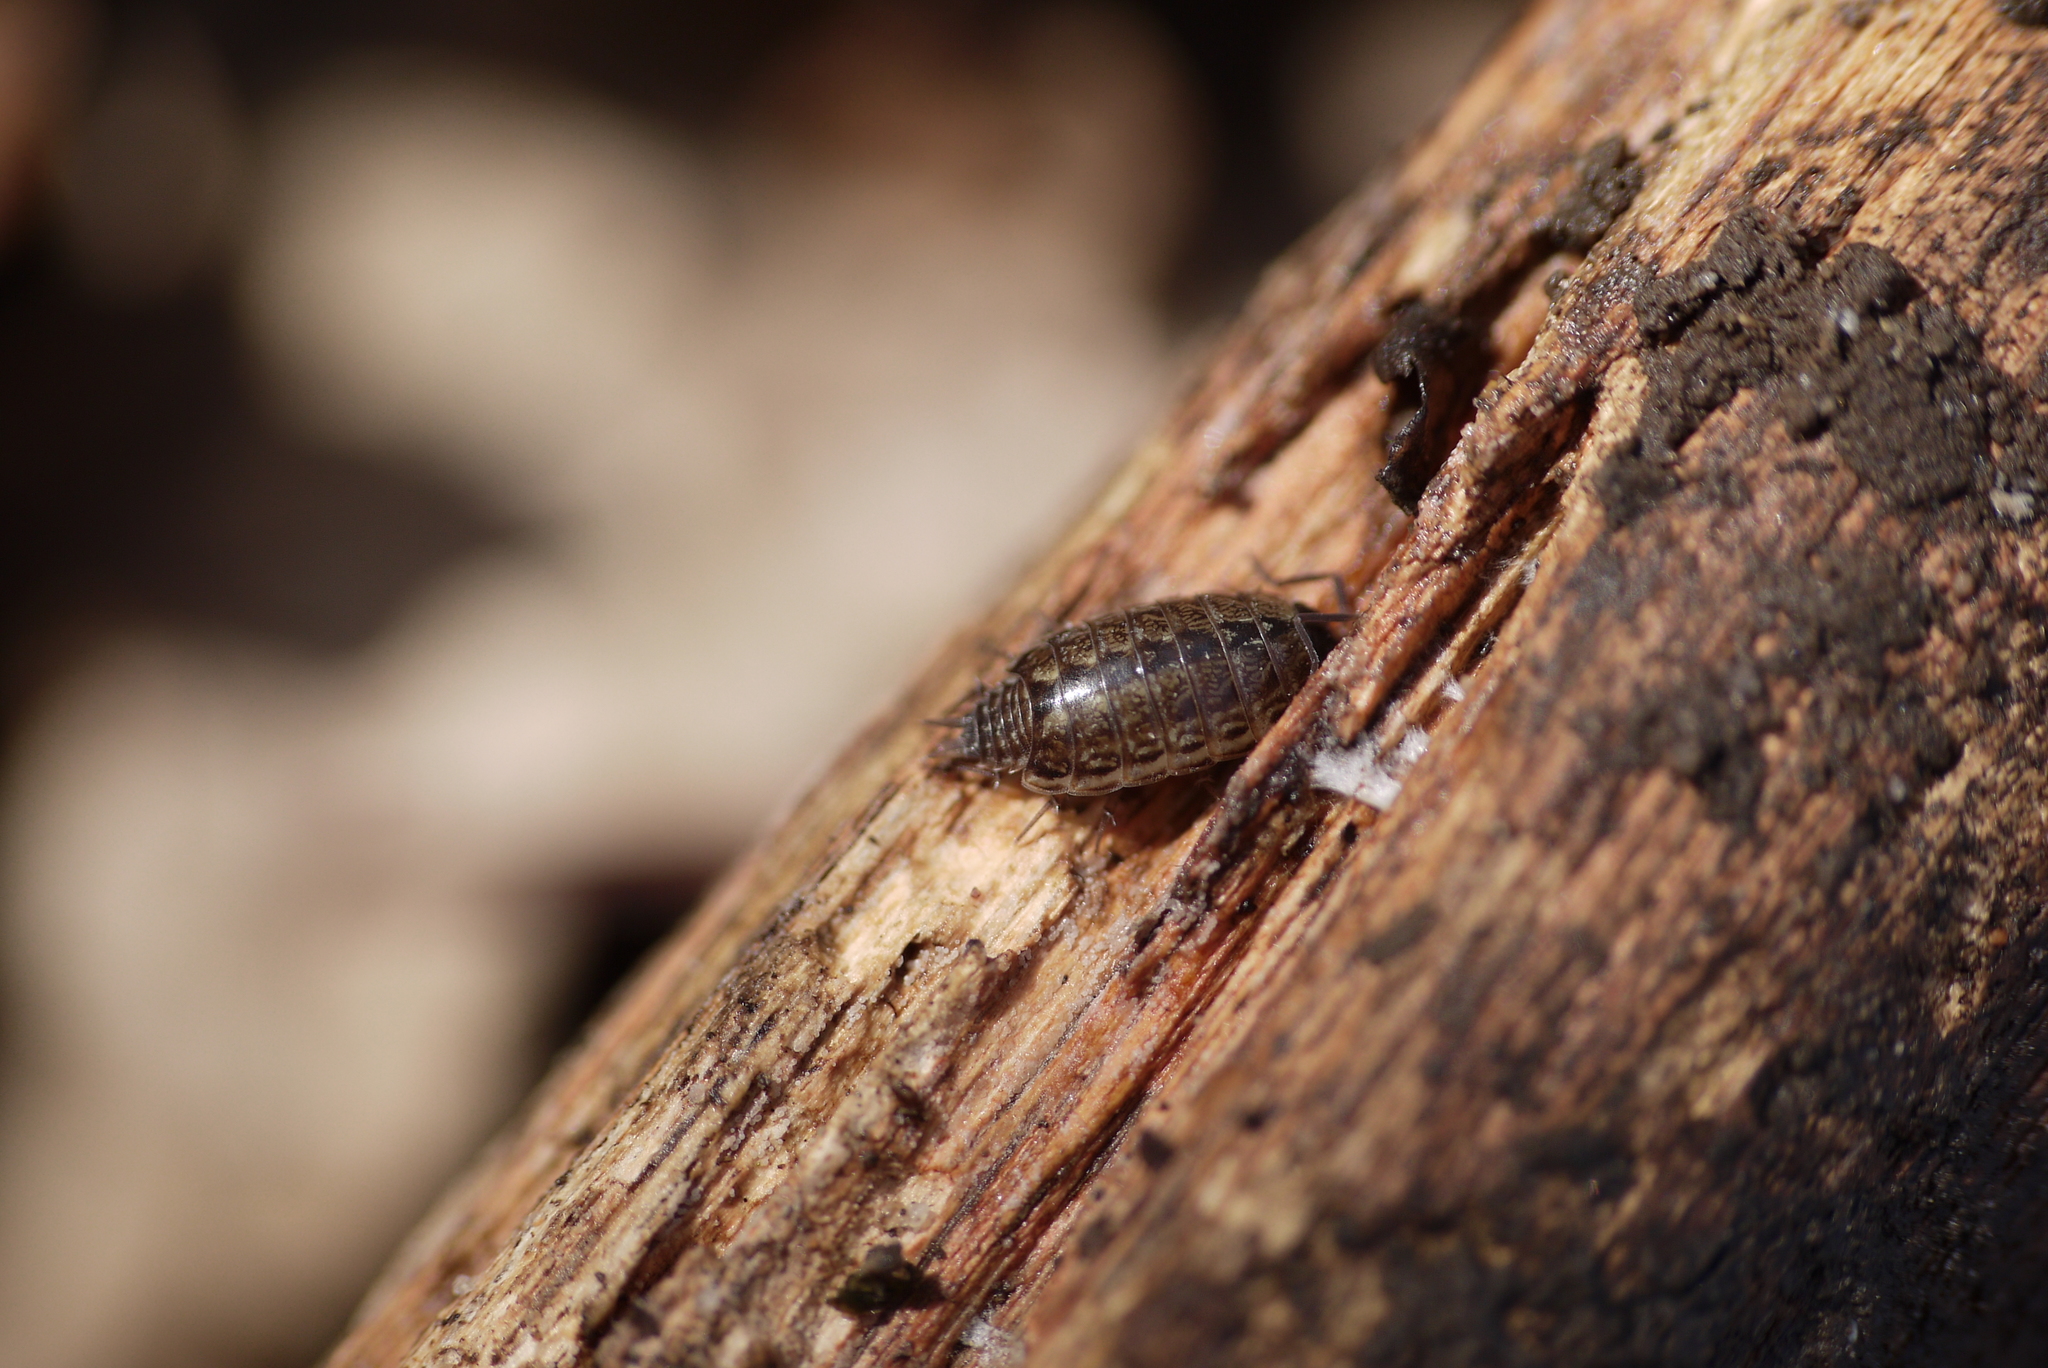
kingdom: Animalia
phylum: Arthropoda
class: Malacostraca
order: Isopoda
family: Philosciidae
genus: Philoscia
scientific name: Philoscia muscorum
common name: Common striped woodlouse
